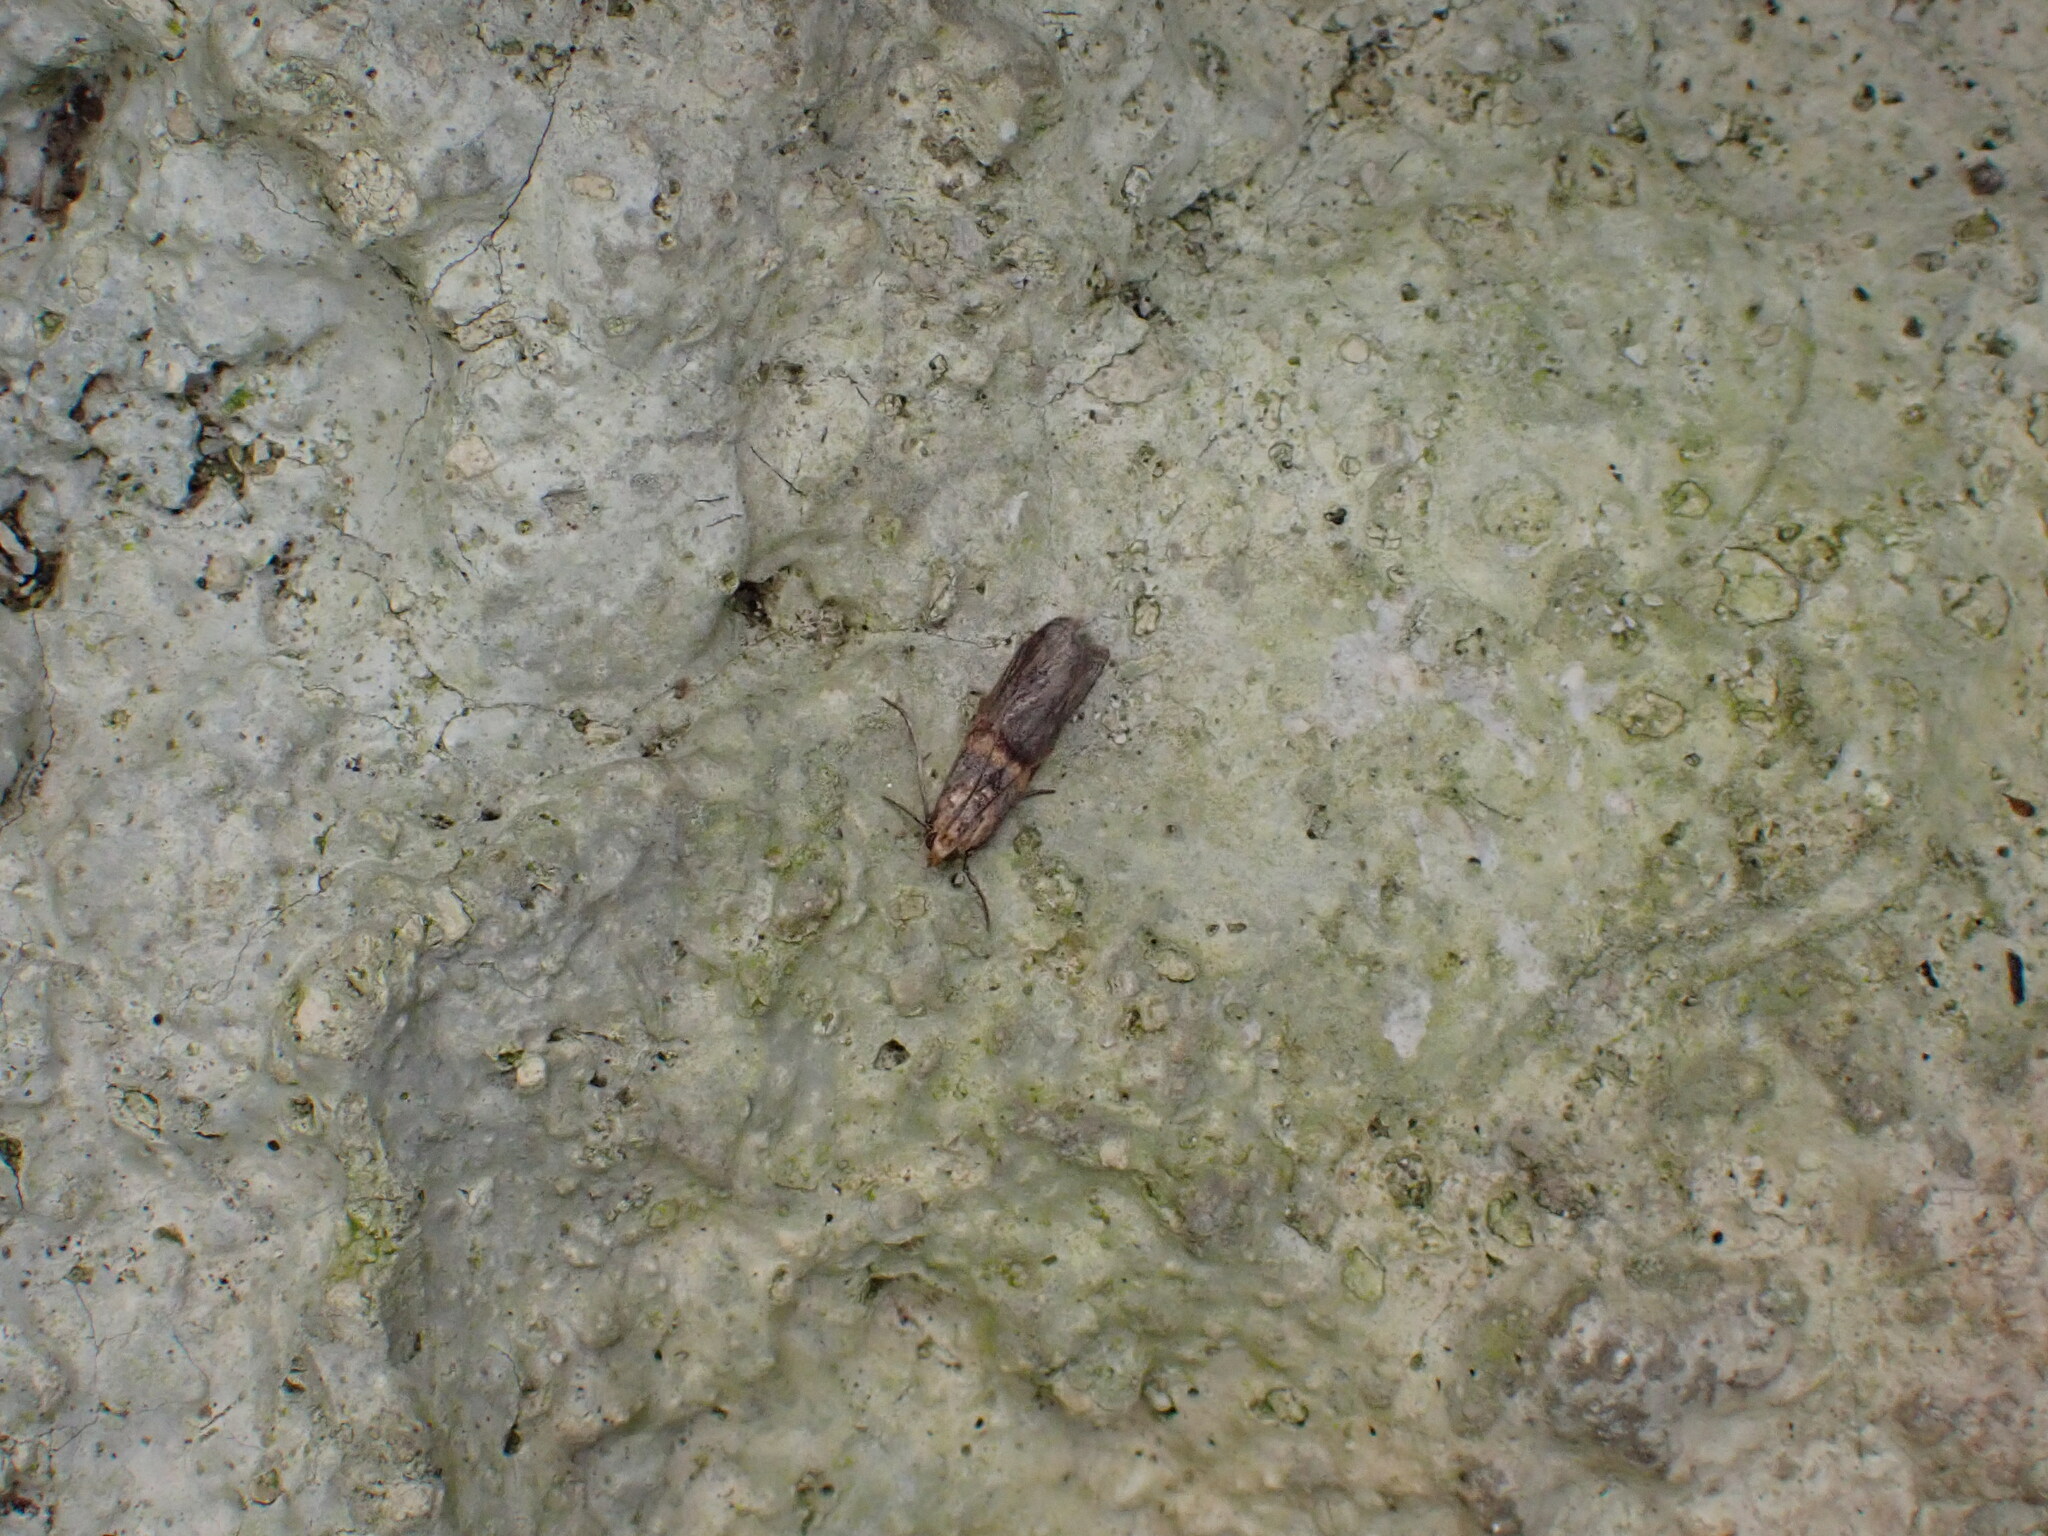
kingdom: Animalia
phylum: Arthropoda
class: Insecta
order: Lepidoptera
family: Pyralidae
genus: Oxybia
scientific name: Oxybia transversella
